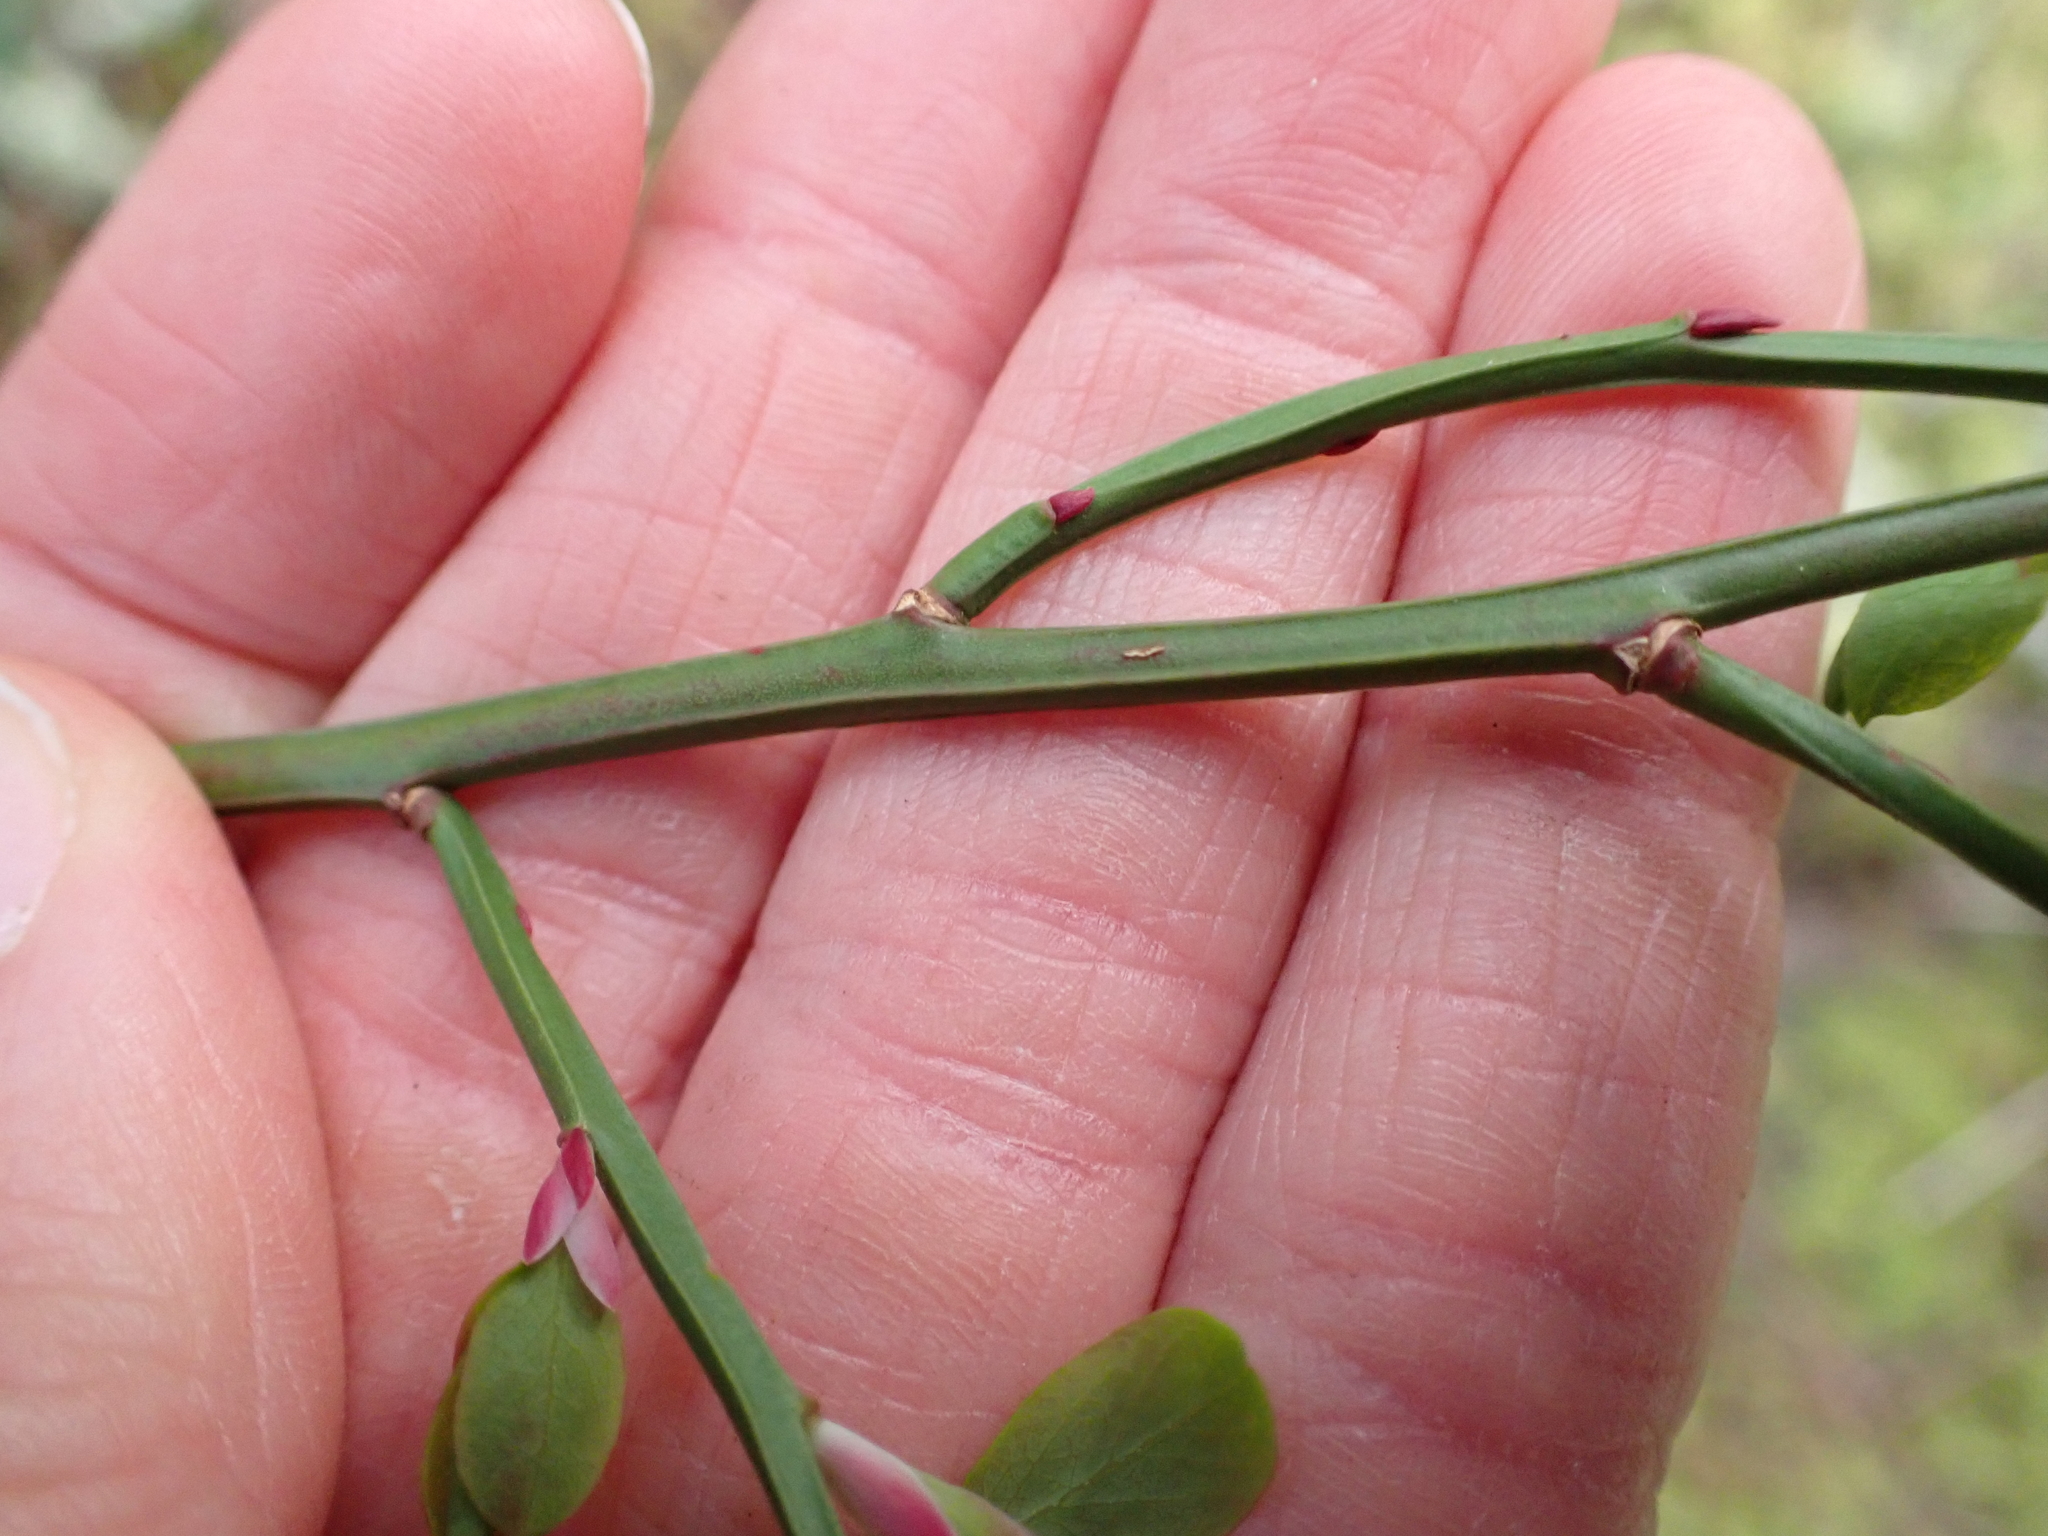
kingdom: Plantae
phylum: Tracheophyta
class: Magnoliopsida
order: Ericales
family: Ericaceae
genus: Vaccinium
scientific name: Vaccinium parvifolium
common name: Red-huckleberry
